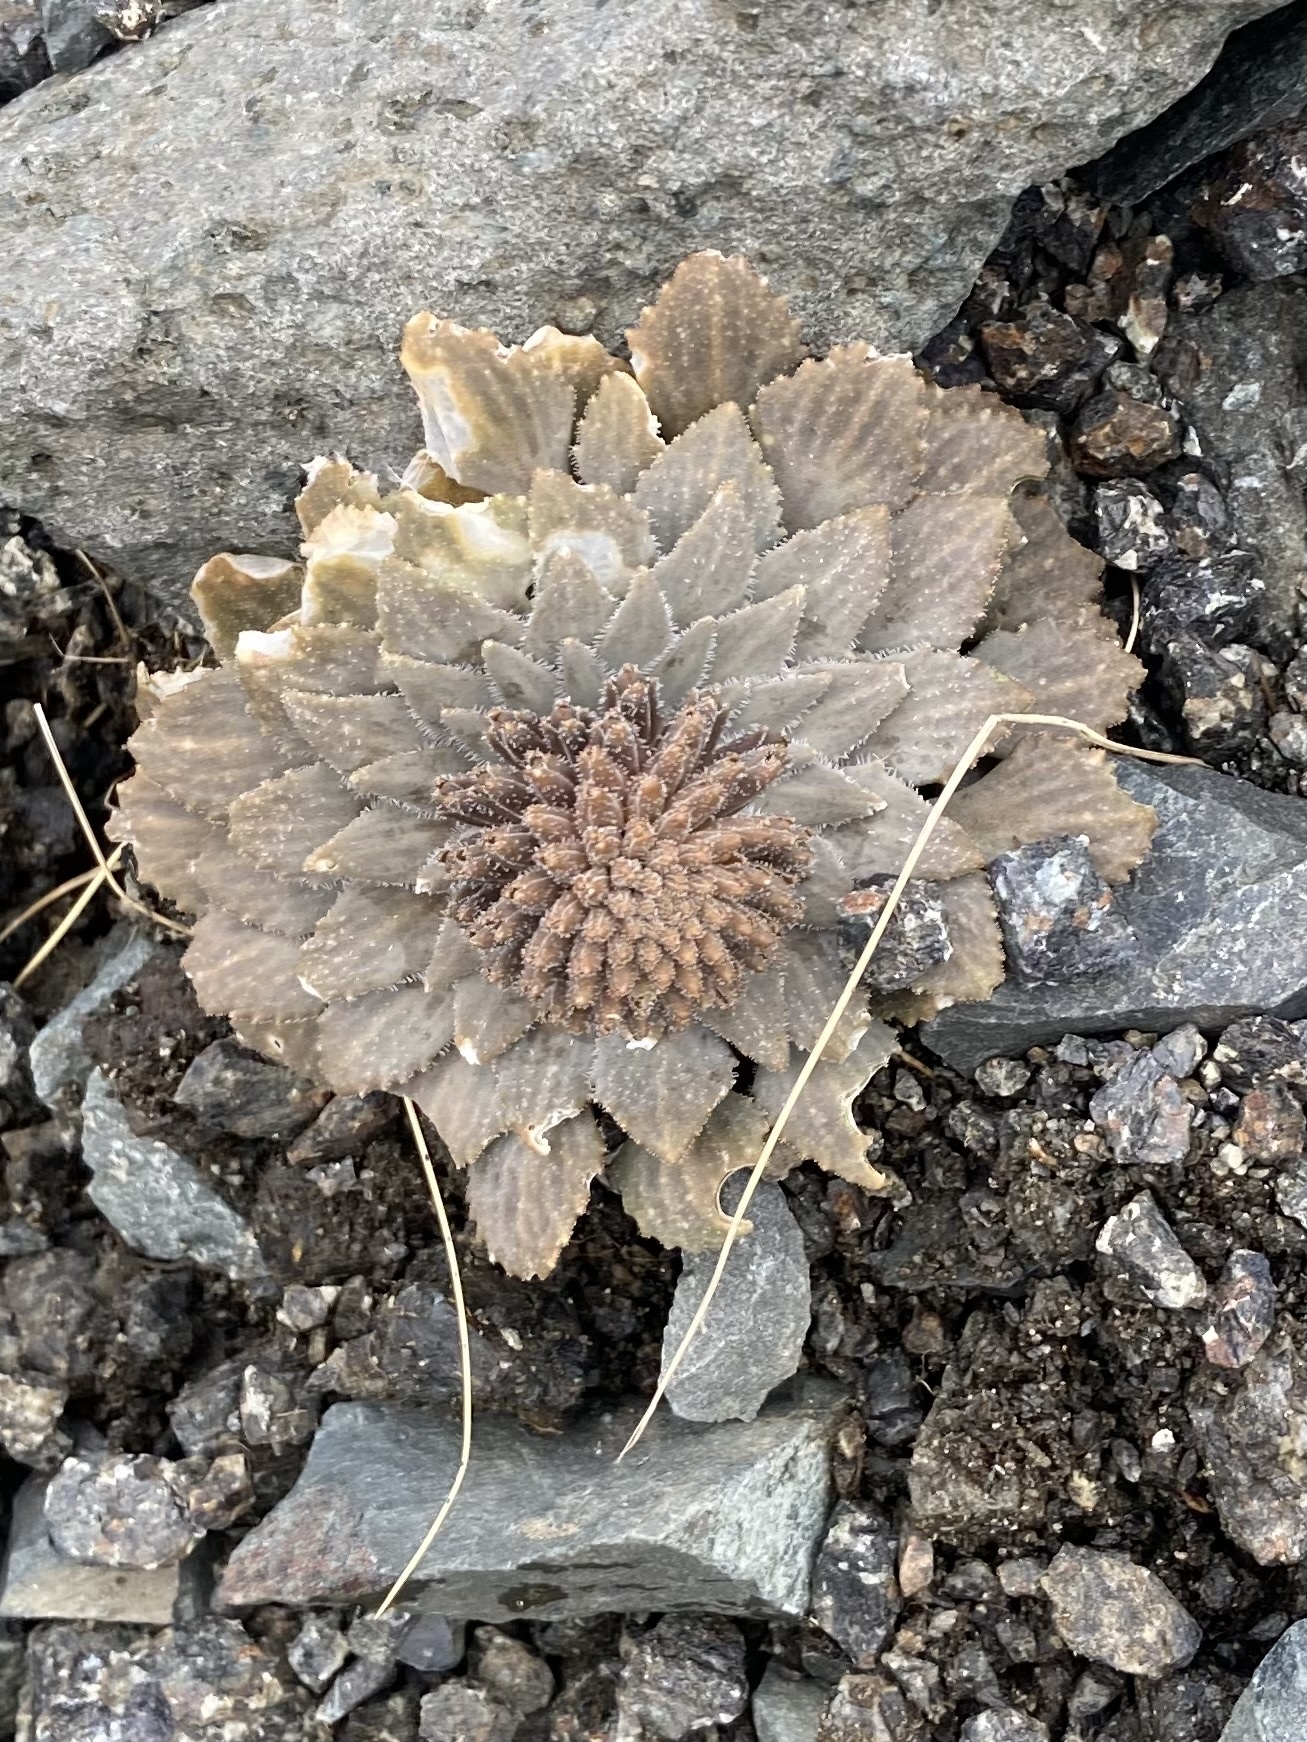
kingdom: Plantae
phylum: Tracheophyta
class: Magnoliopsida
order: Brassicales
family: Brassicaceae
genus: Notothlaspi
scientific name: Notothlaspi rosulatum
